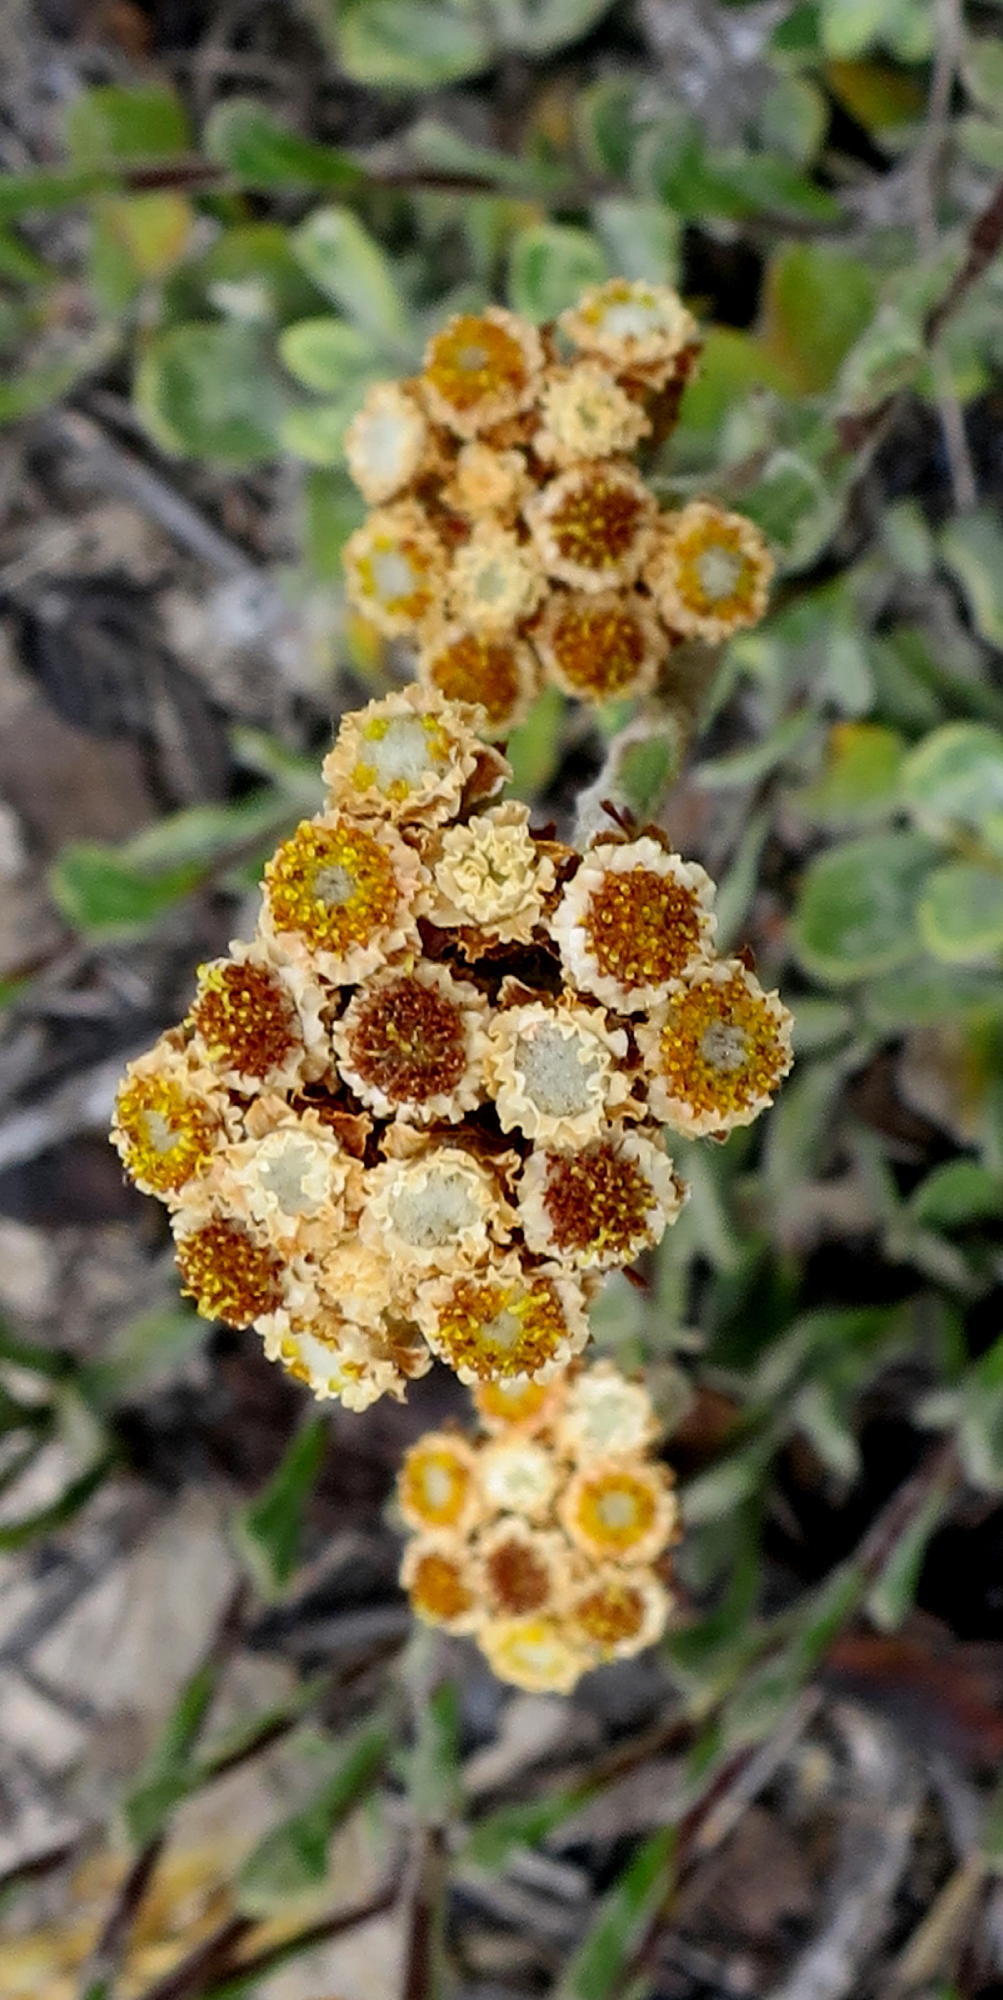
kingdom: Plantae
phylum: Tracheophyta
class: Magnoliopsida
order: Asterales
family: Asteraceae
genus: Helichrysum
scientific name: Helichrysum rotundifolium
